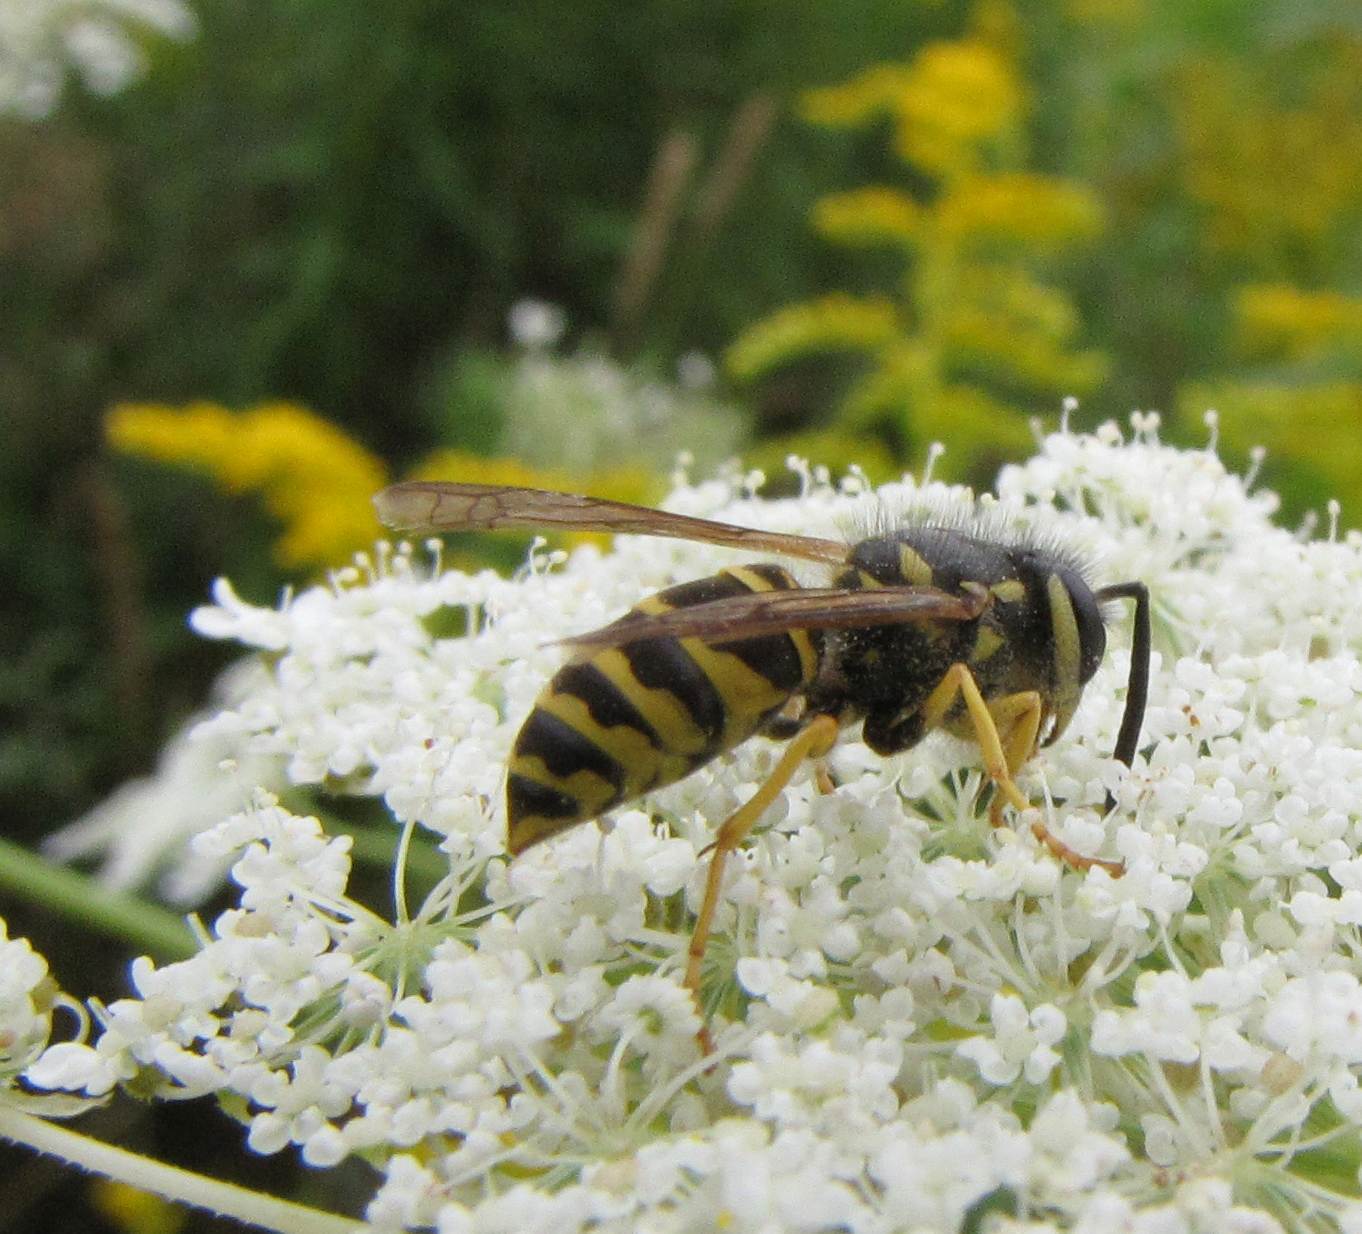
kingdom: Animalia
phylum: Arthropoda
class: Insecta
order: Hymenoptera
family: Vespidae
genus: Vespula
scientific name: Vespula maculifrons
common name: Eastern yellowjacket
